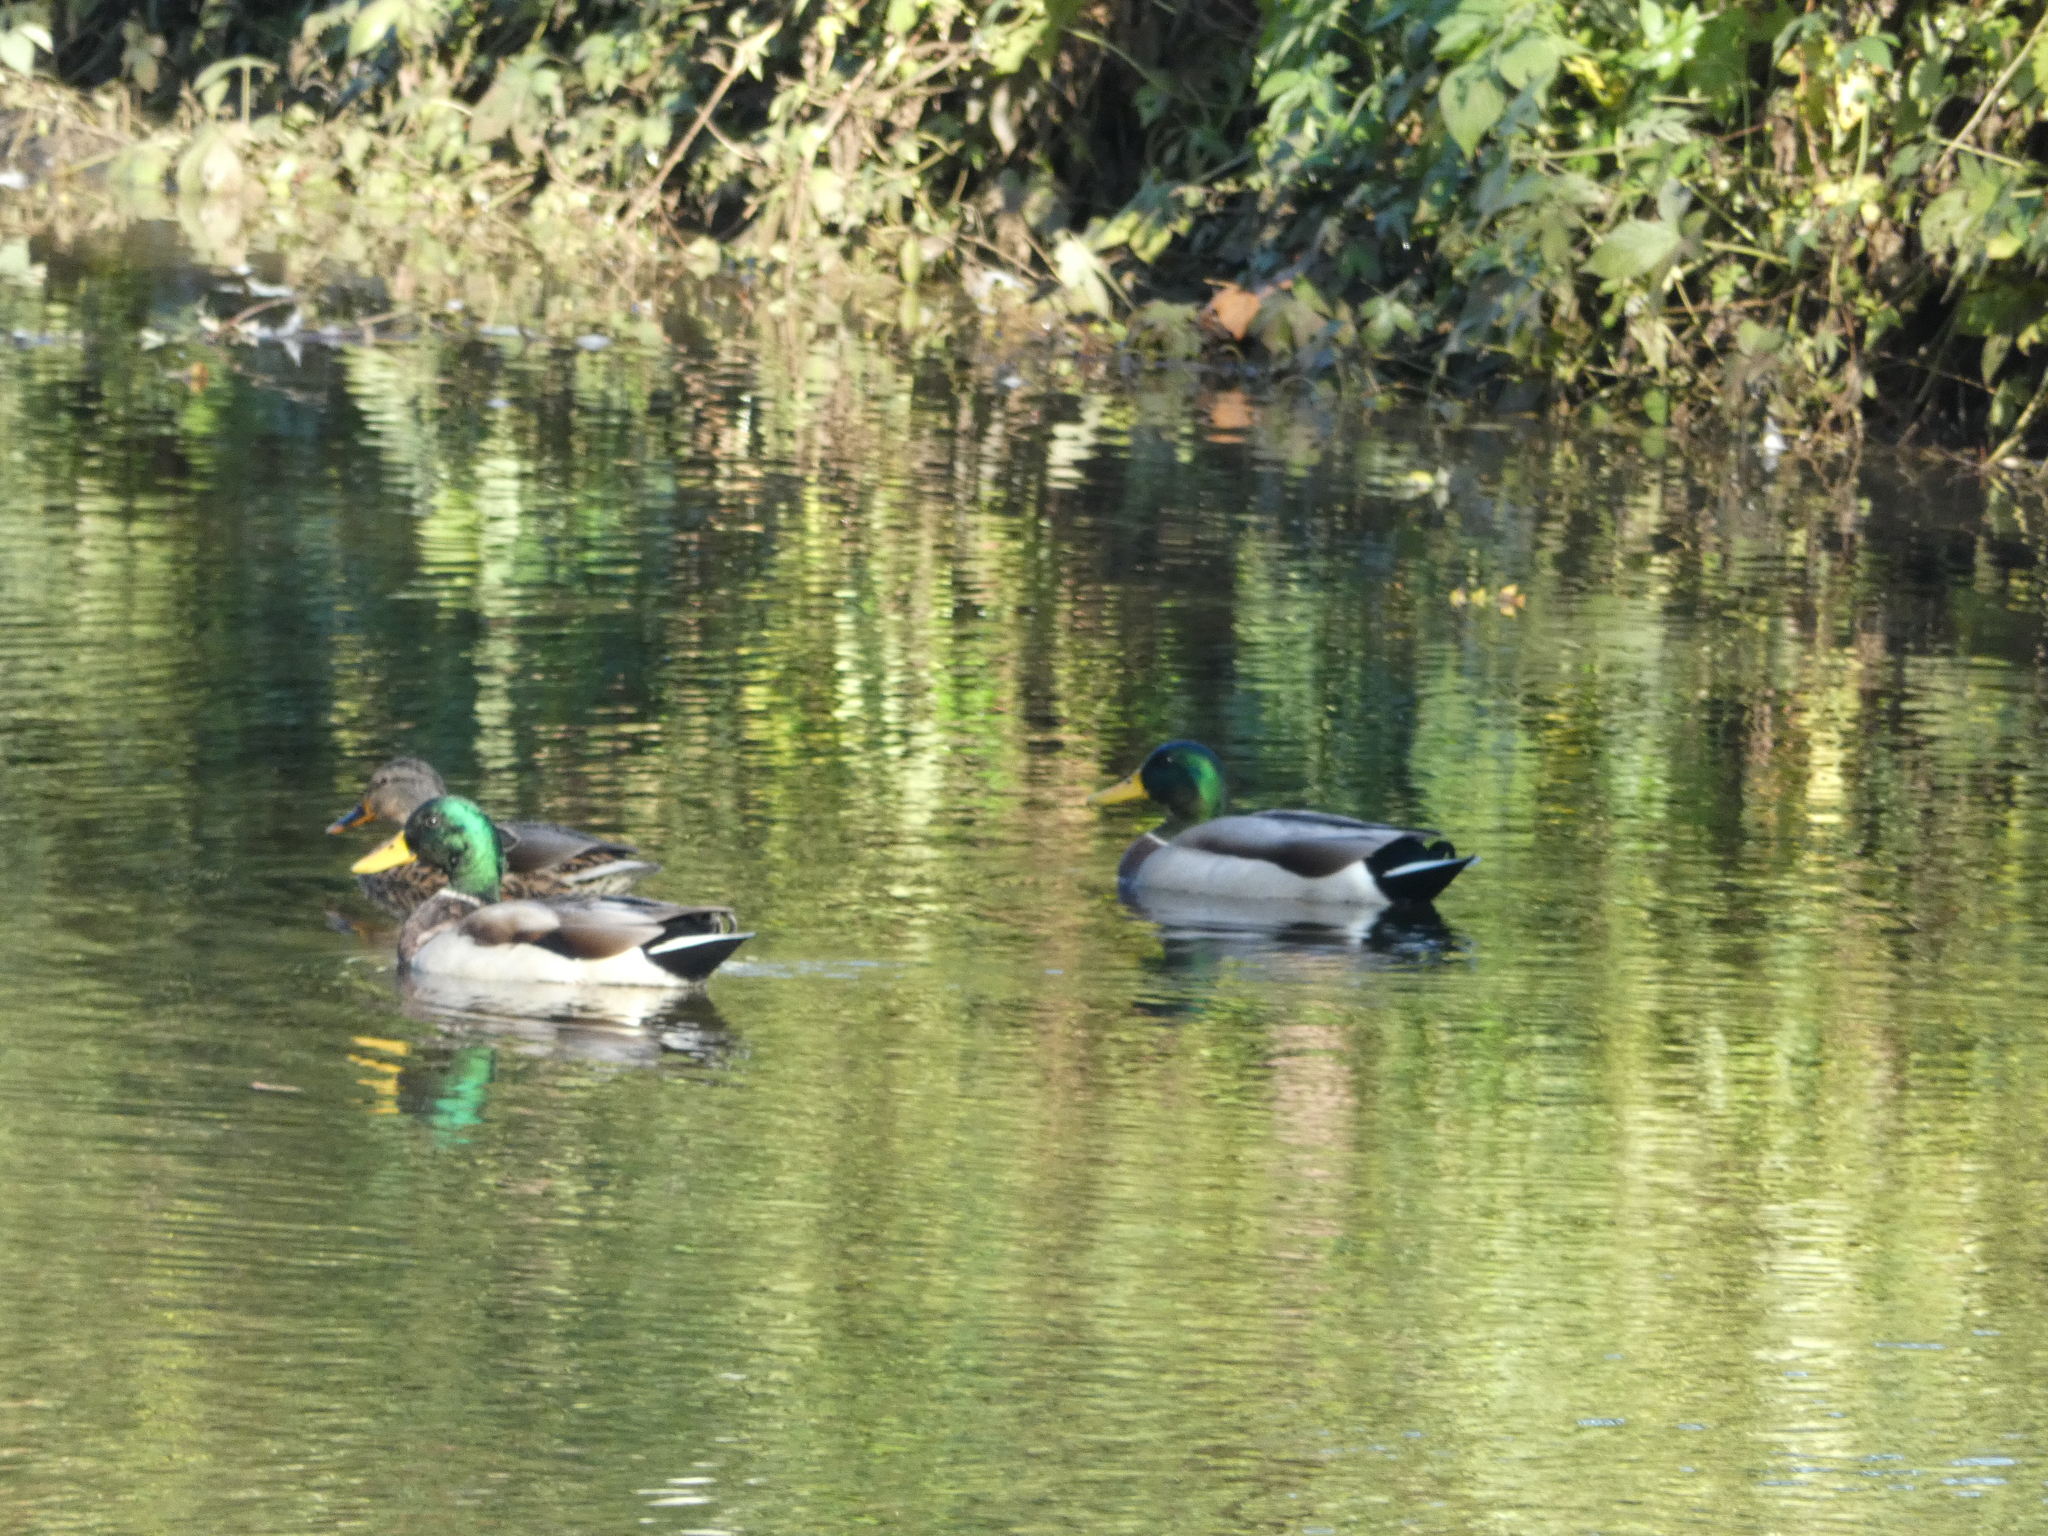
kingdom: Animalia
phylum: Chordata
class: Aves
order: Anseriformes
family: Anatidae
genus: Anas
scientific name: Anas platyrhynchos
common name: Mallard
